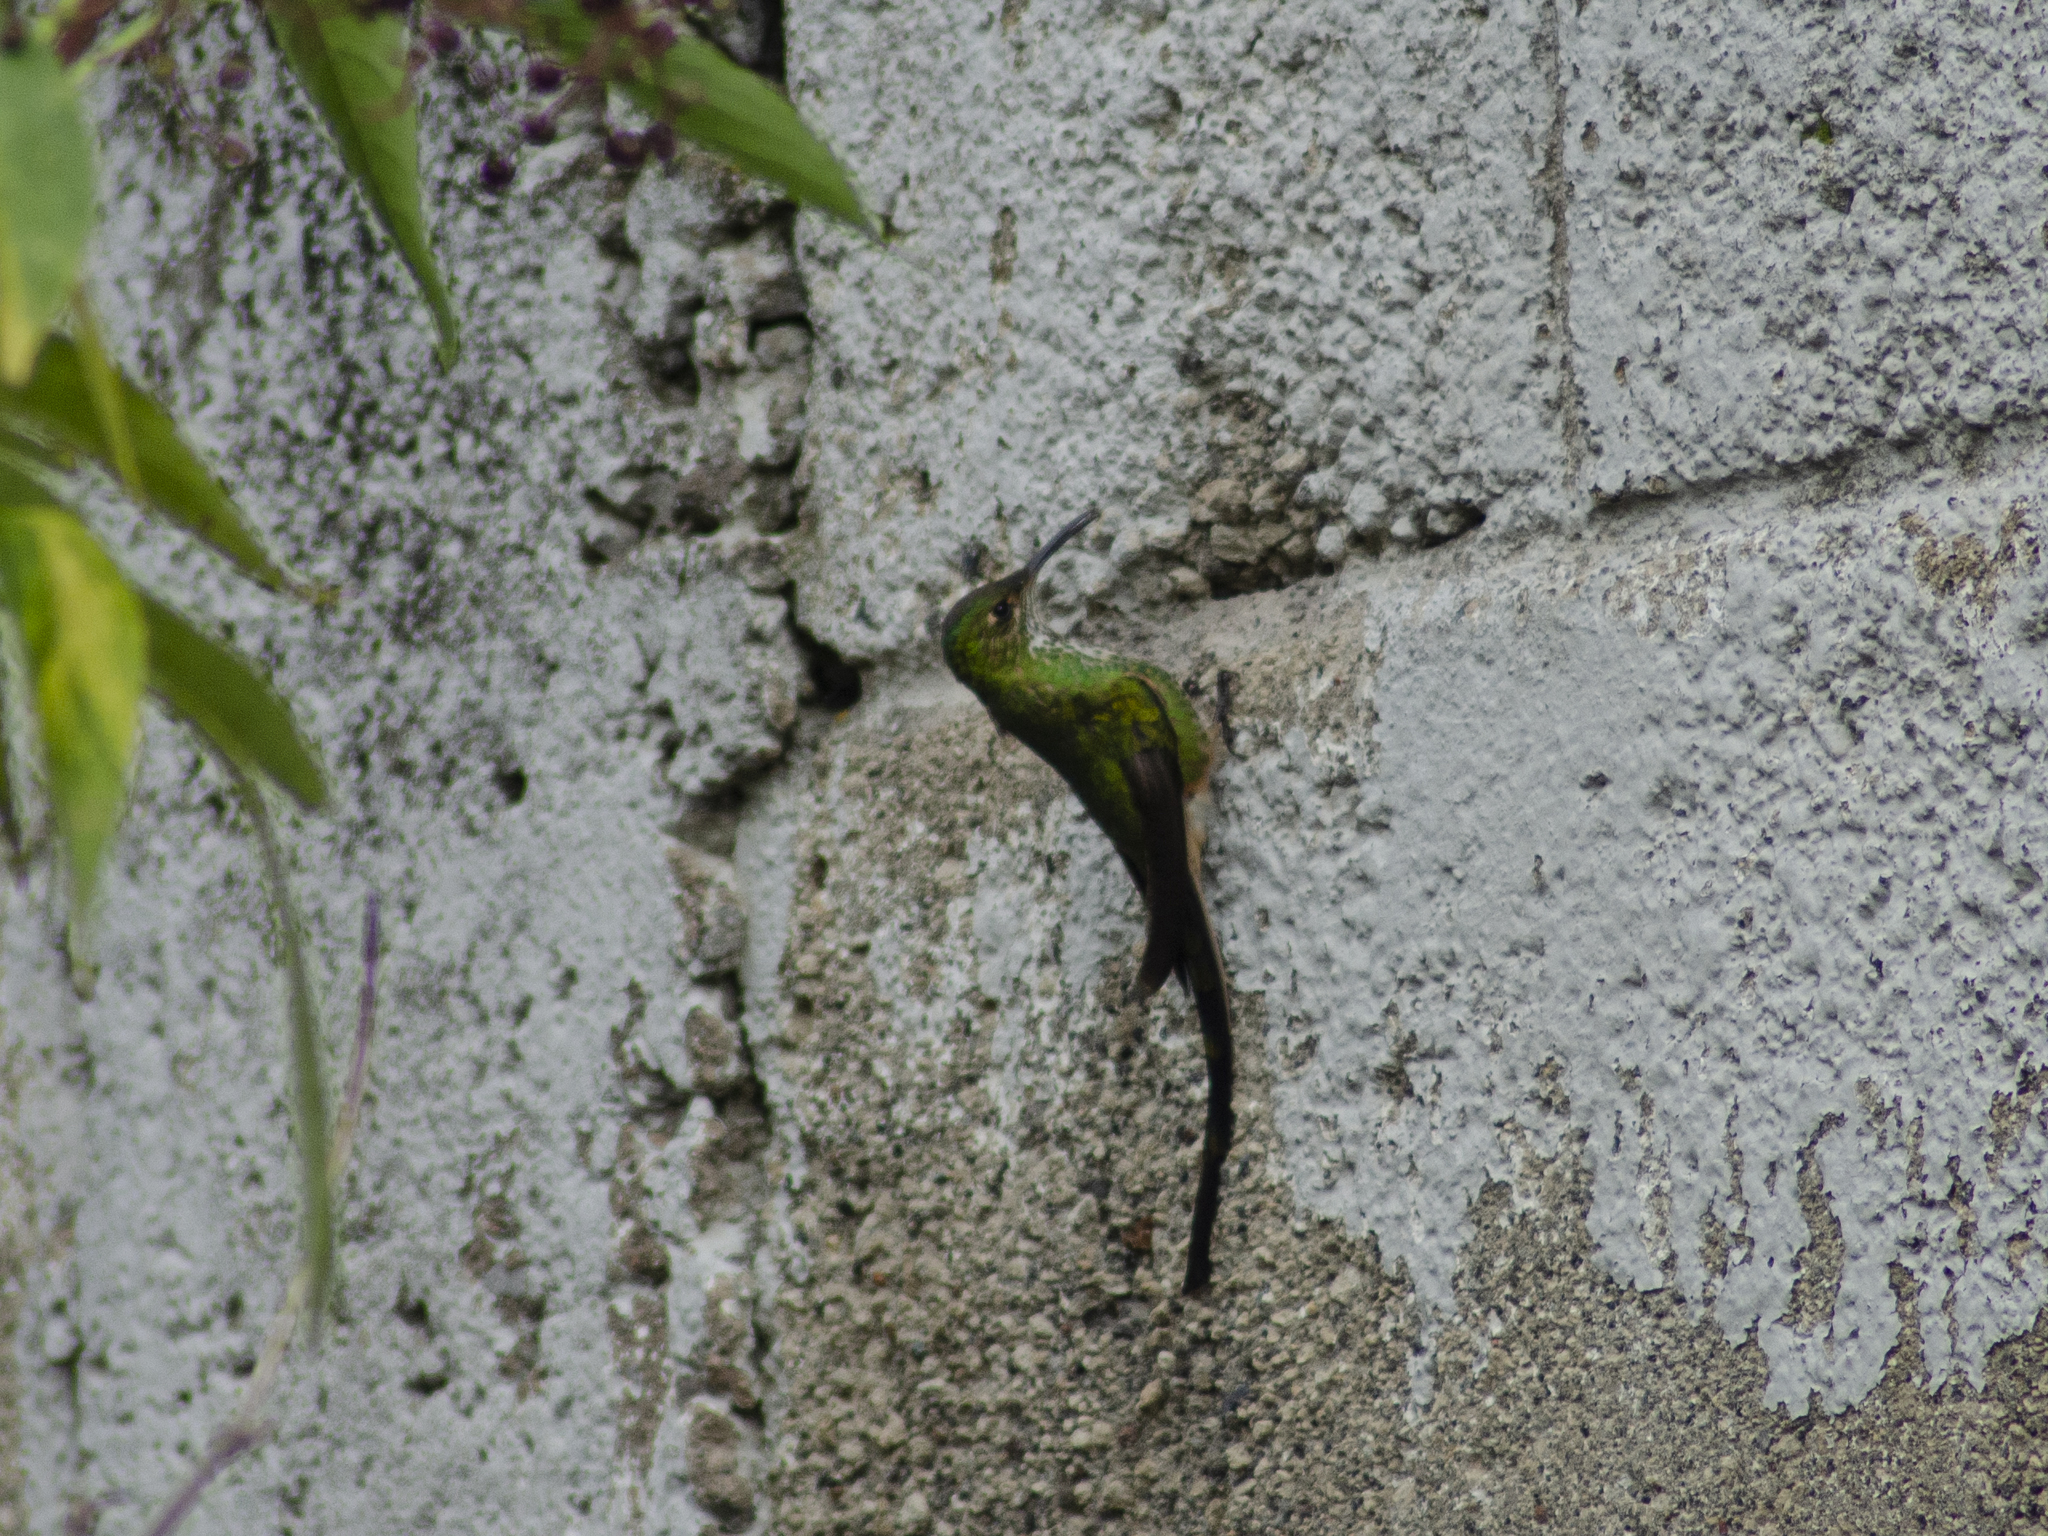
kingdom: Animalia
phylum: Chordata
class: Aves
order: Apodiformes
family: Trochilidae
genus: Lesbia
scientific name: Lesbia victoriae
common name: Black-tailed trainbearer
